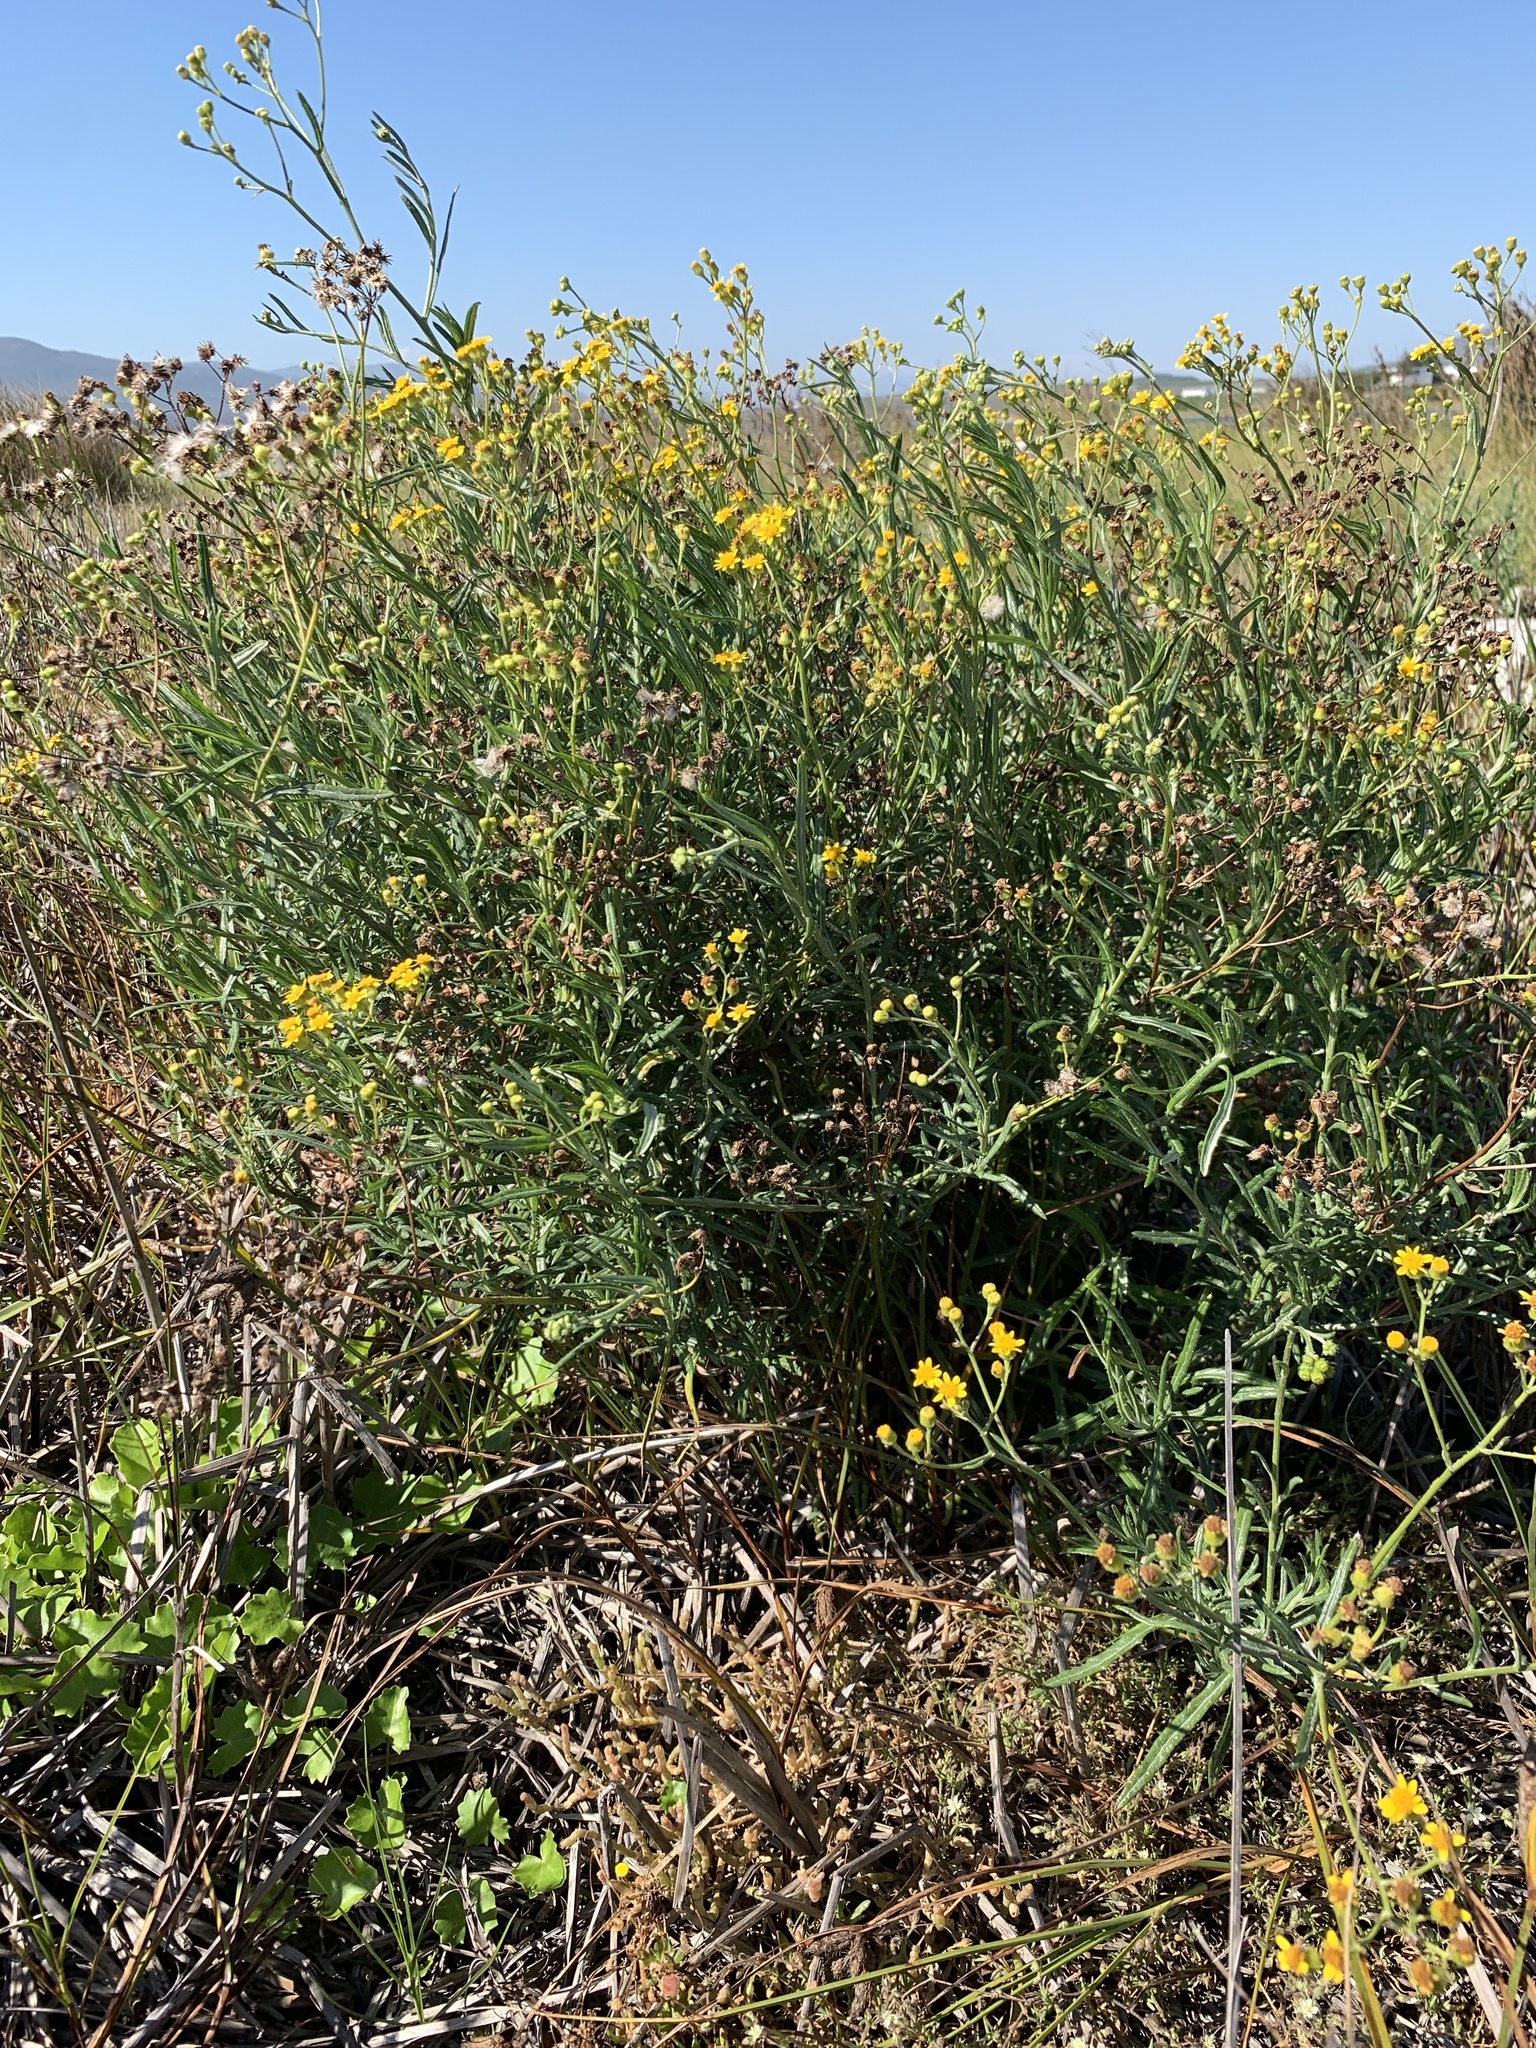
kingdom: Plantae
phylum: Tracheophyta
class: Magnoliopsida
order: Asterales
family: Asteraceae
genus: Senecio
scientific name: Senecio pterophorus
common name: Shoddy ragwort
